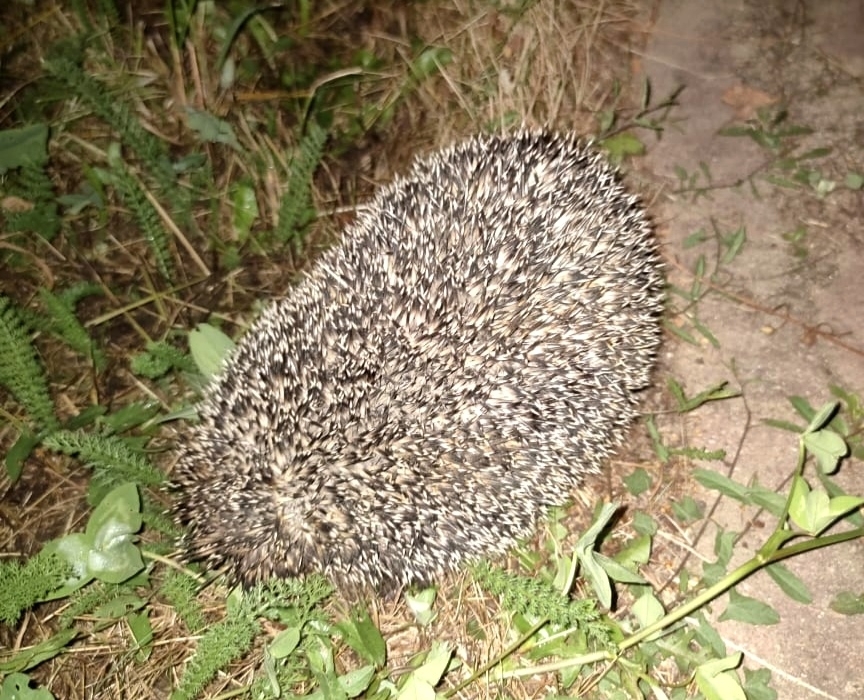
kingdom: Animalia
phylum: Chordata
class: Mammalia
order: Erinaceomorpha
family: Erinaceidae
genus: Erinaceus
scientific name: Erinaceus europaeus
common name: West european hedgehog
